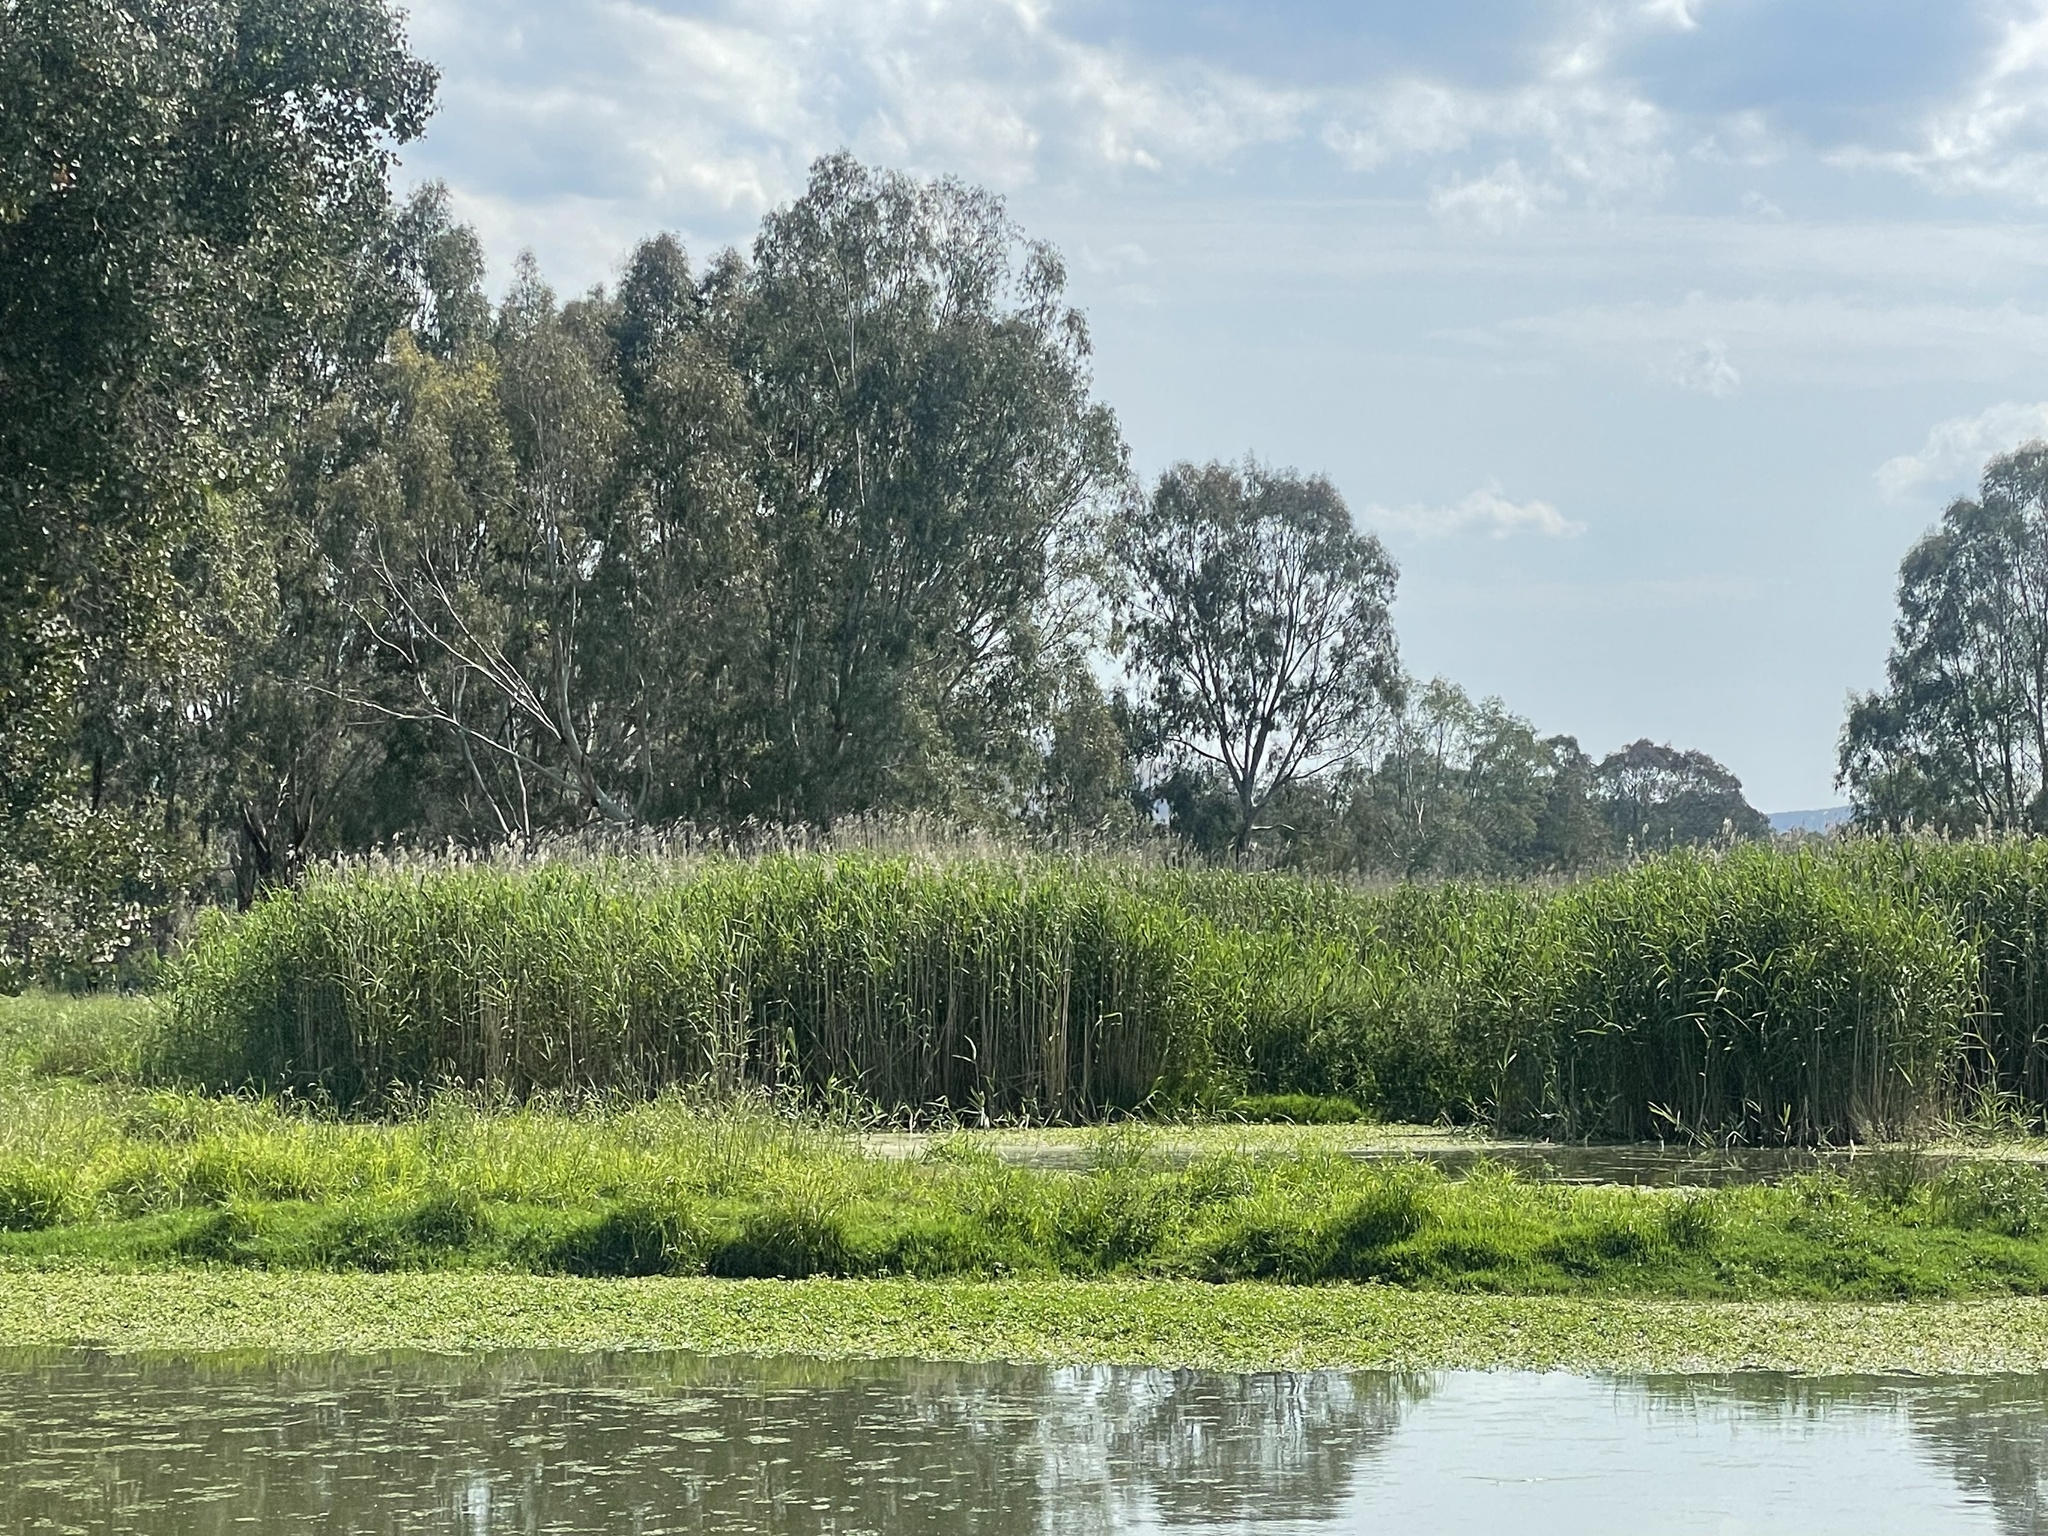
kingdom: Plantae
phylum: Tracheophyta
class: Liliopsida
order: Poales
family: Poaceae
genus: Phragmites
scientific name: Phragmites australis
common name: Common reed
